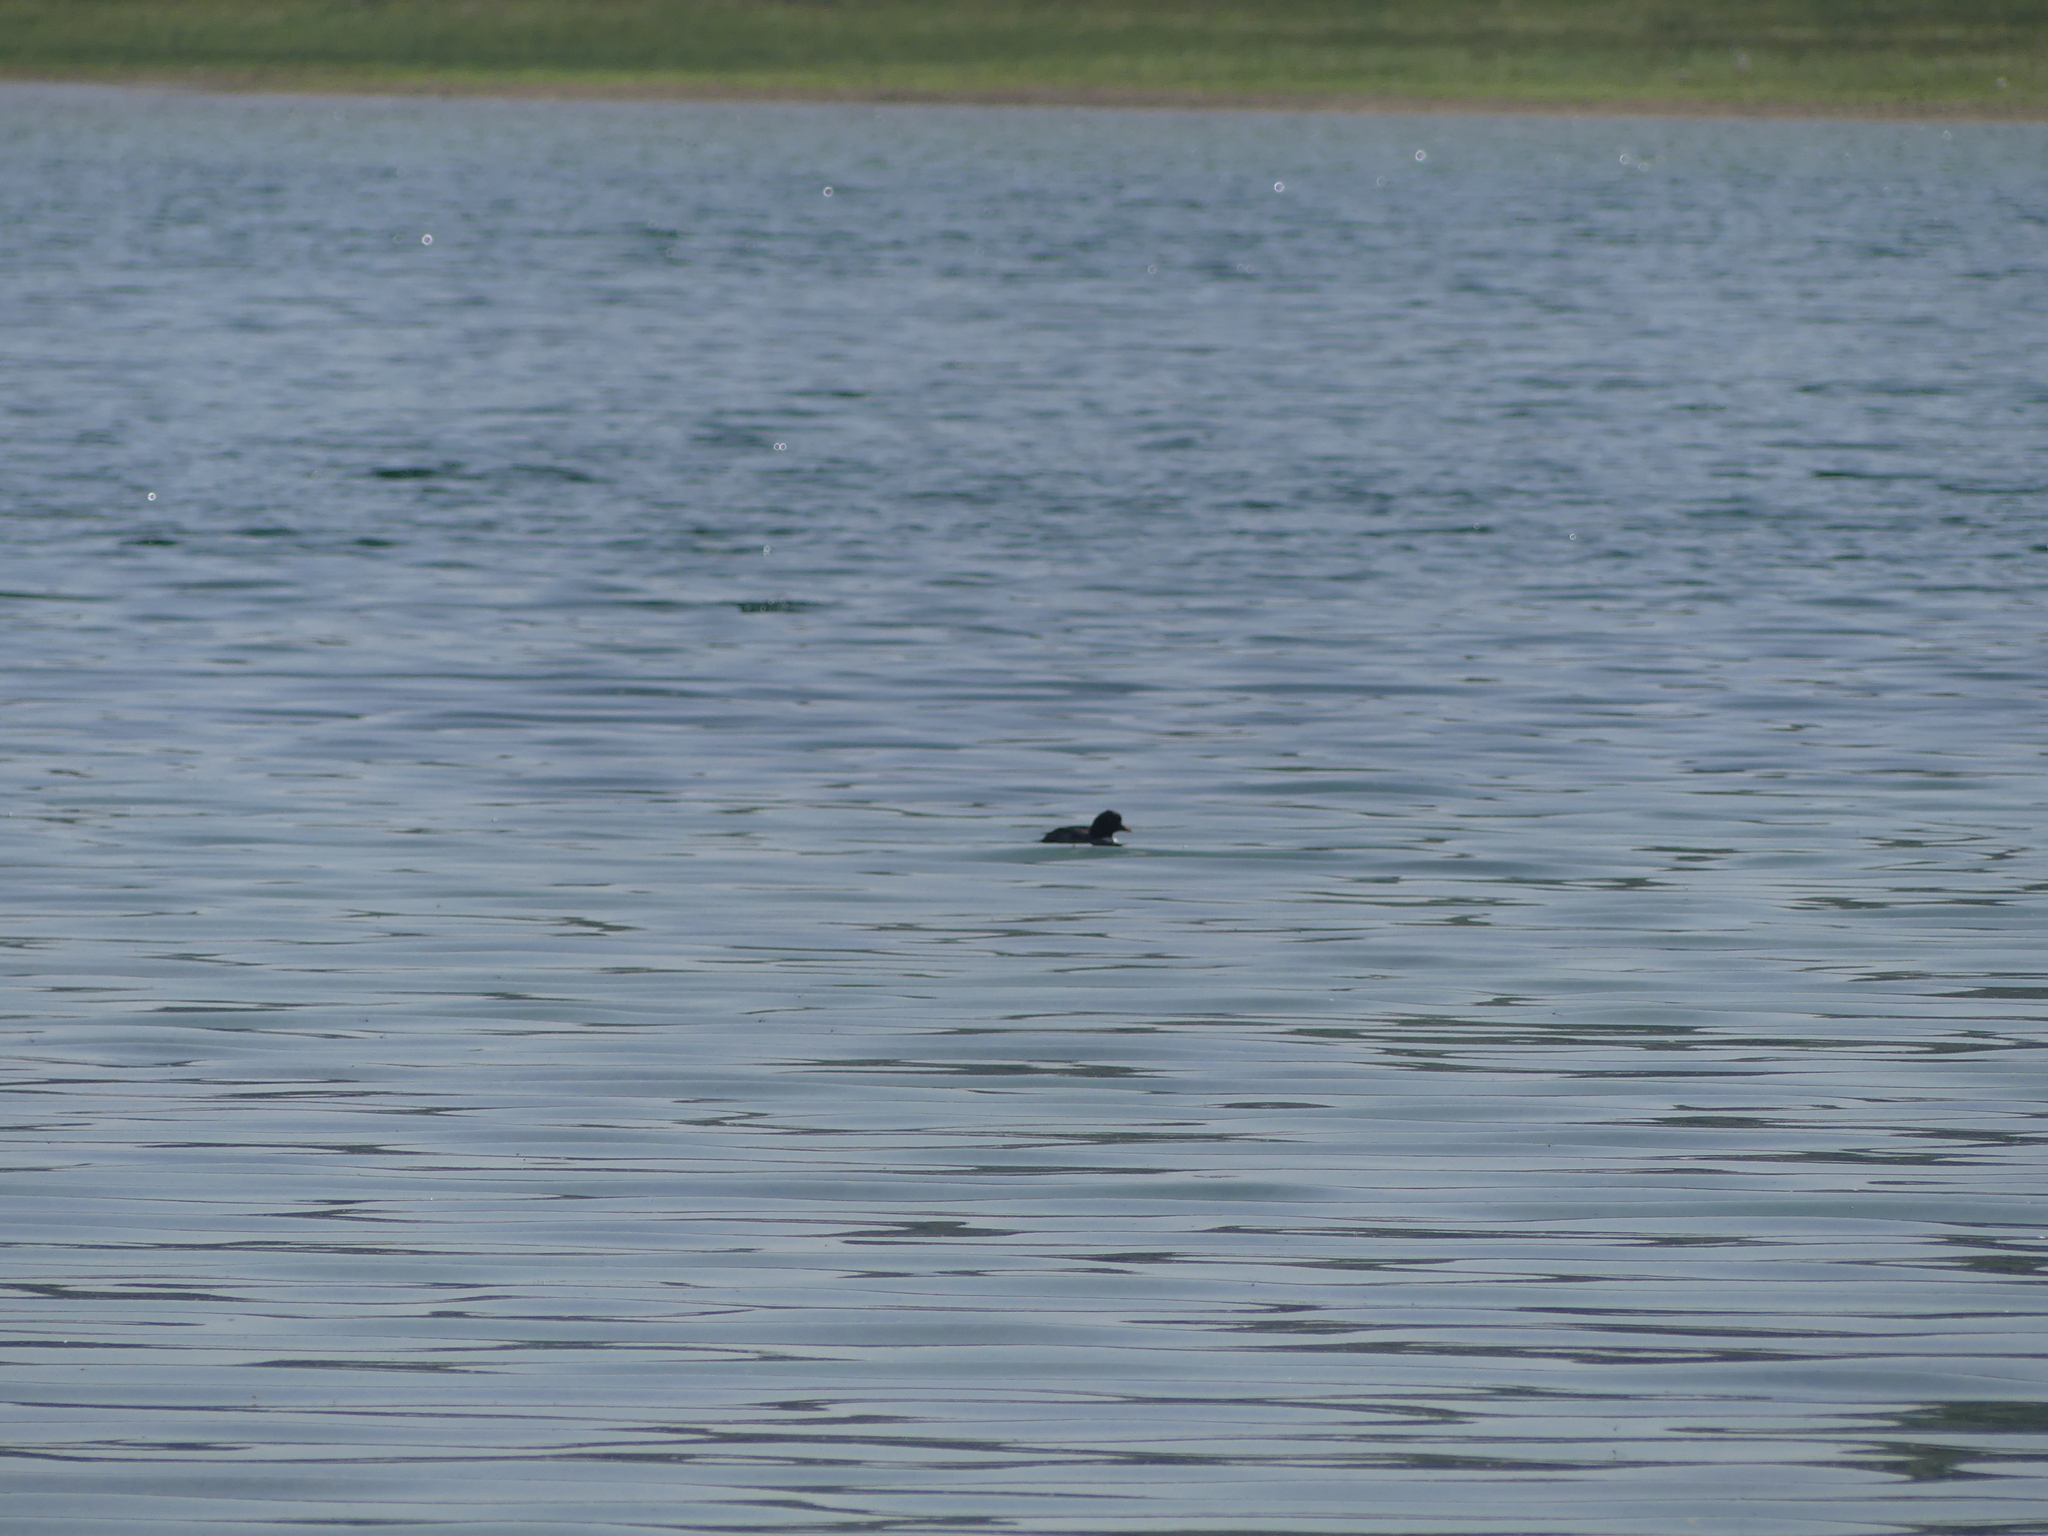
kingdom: Animalia
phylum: Chordata
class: Aves
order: Anseriformes
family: Anatidae
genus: Bucephala
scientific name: Bucephala clangula
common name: Common goldeneye
